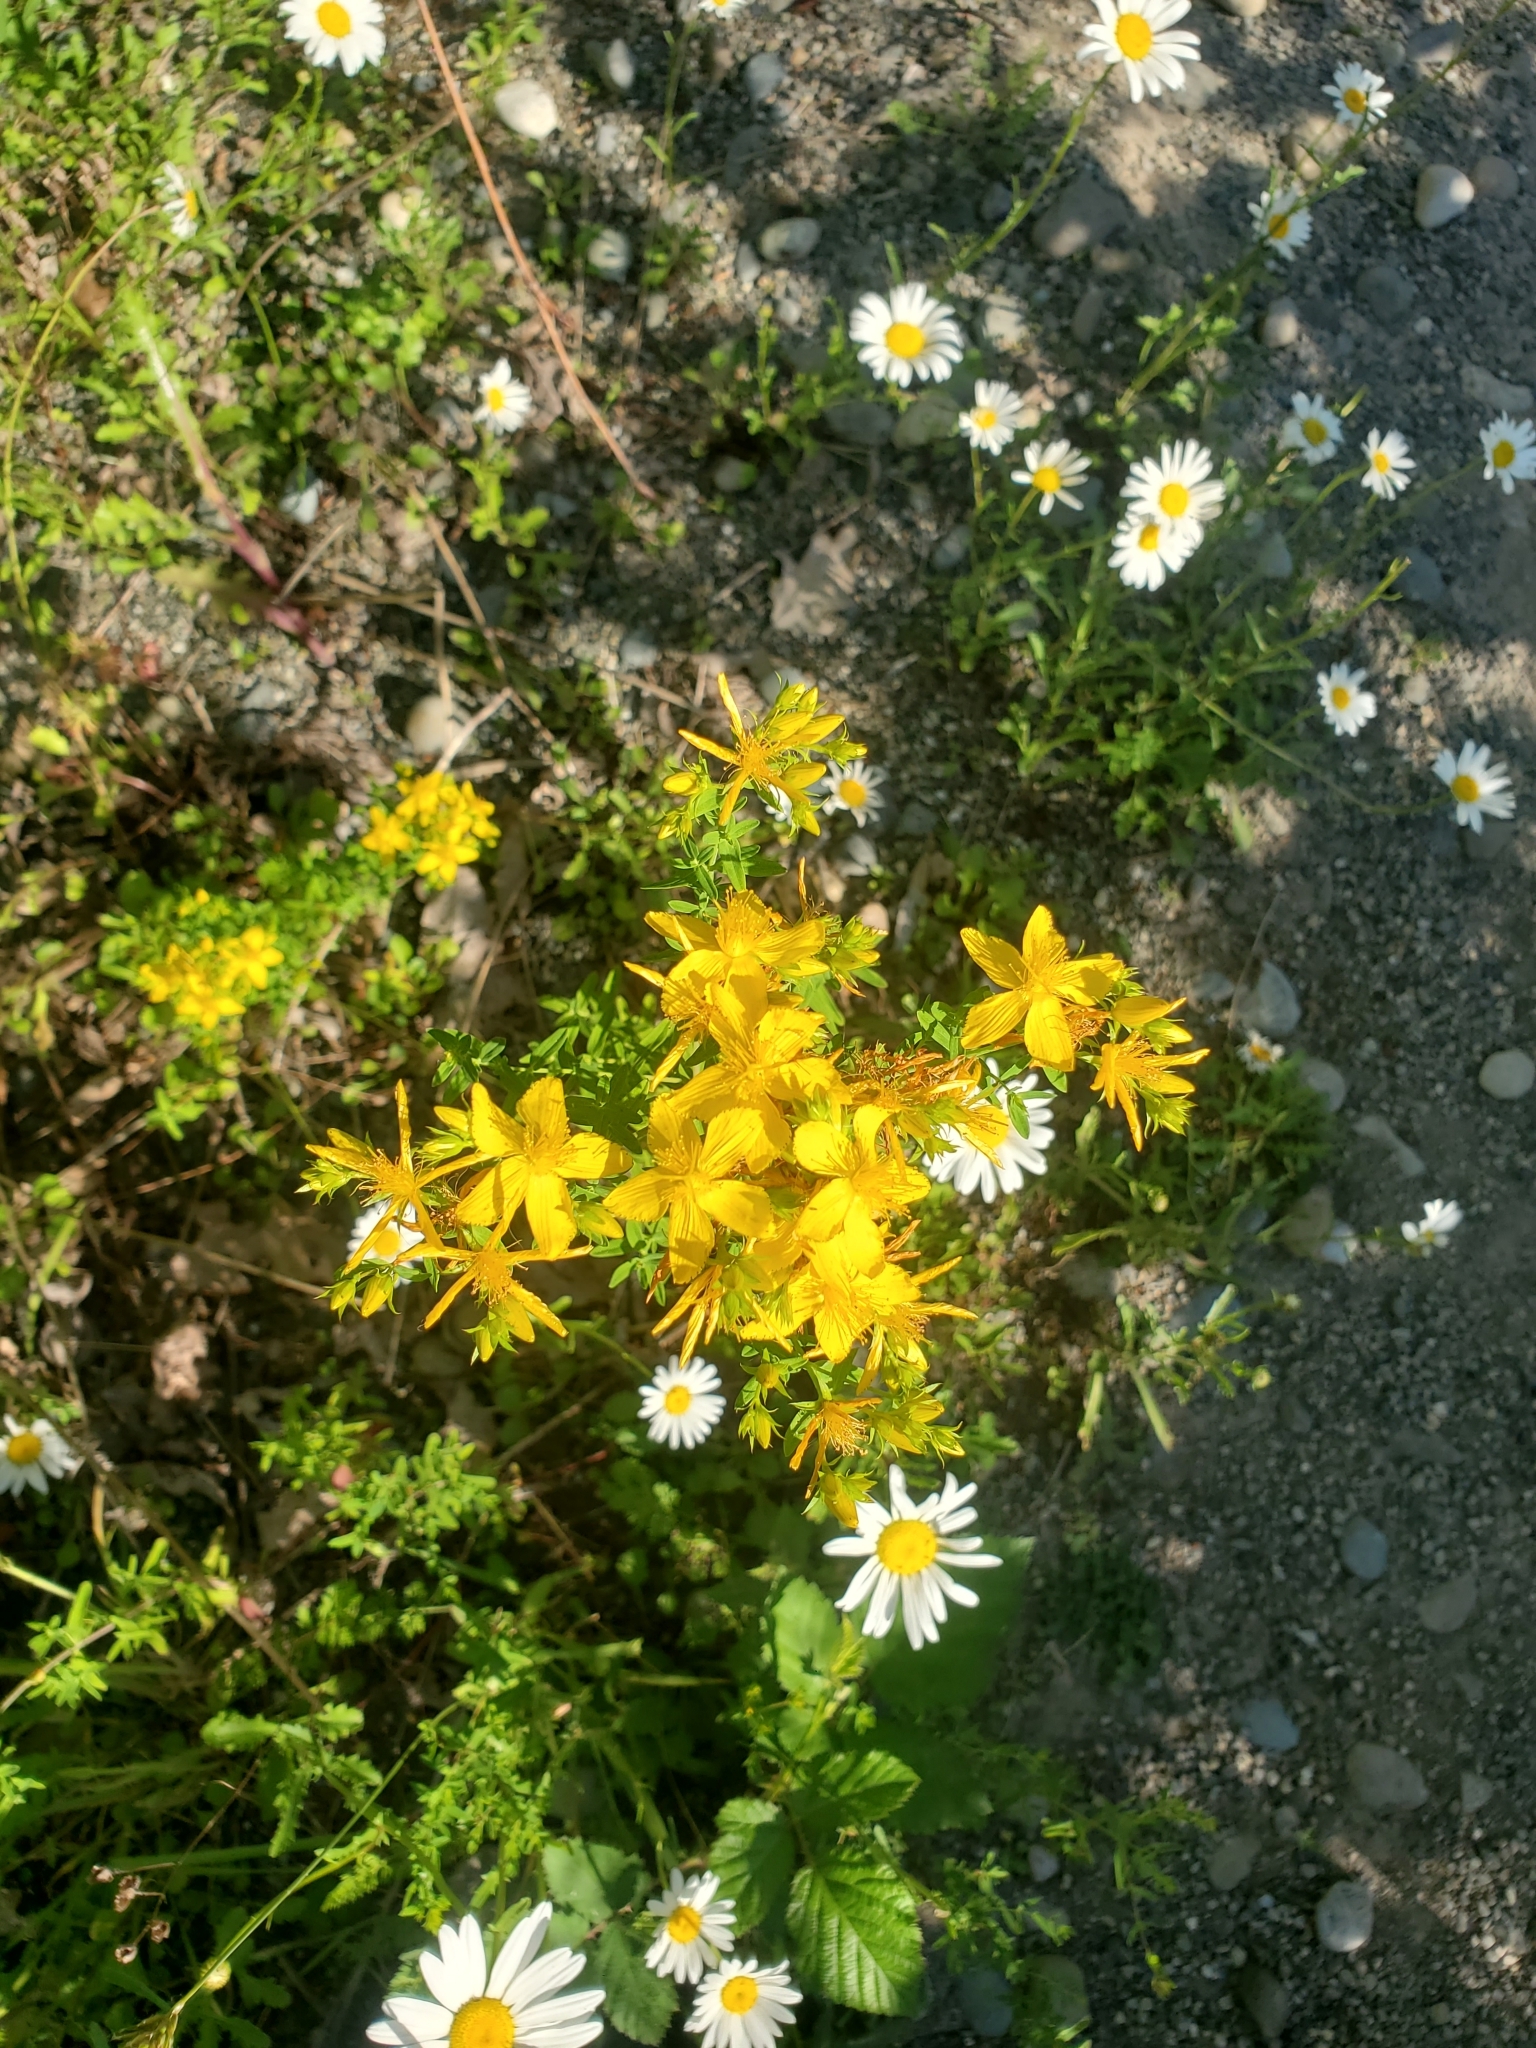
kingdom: Plantae
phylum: Tracheophyta
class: Magnoliopsida
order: Malpighiales
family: Hypericaceae
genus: Hypericum
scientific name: Hypericum perforatum
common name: Common st. johnswort
